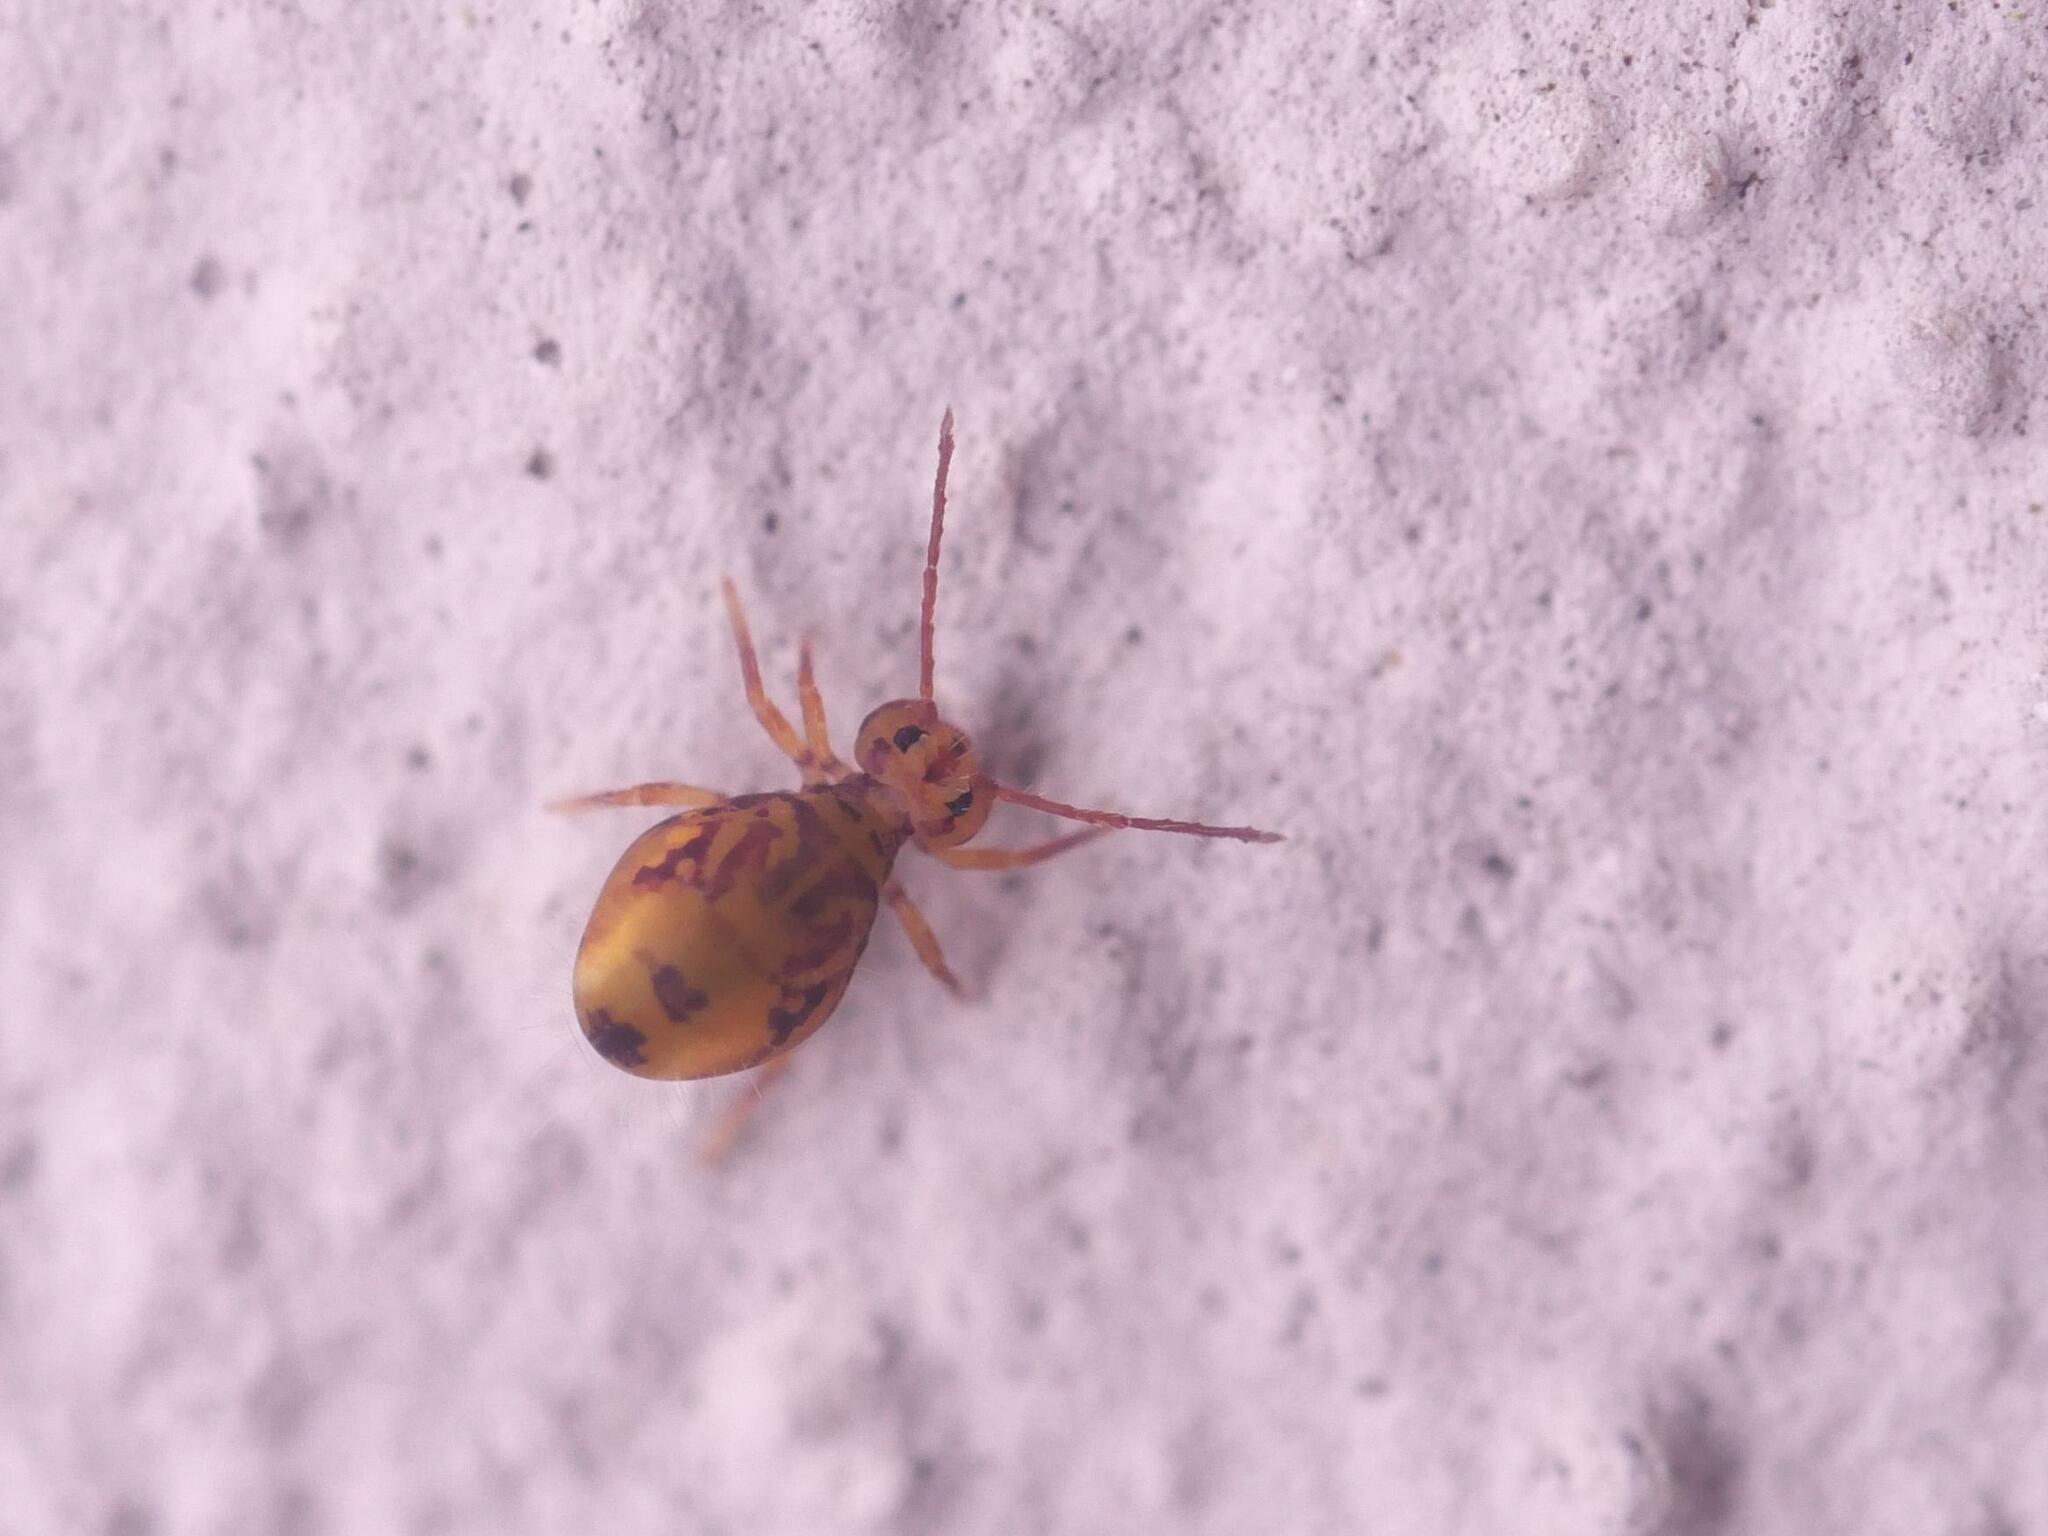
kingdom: Animalia
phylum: Arthropoda
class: Collembola
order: Symphypleona
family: Dicyrtomidae
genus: Dicyrtomina
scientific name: Dicyrtomina ornata
